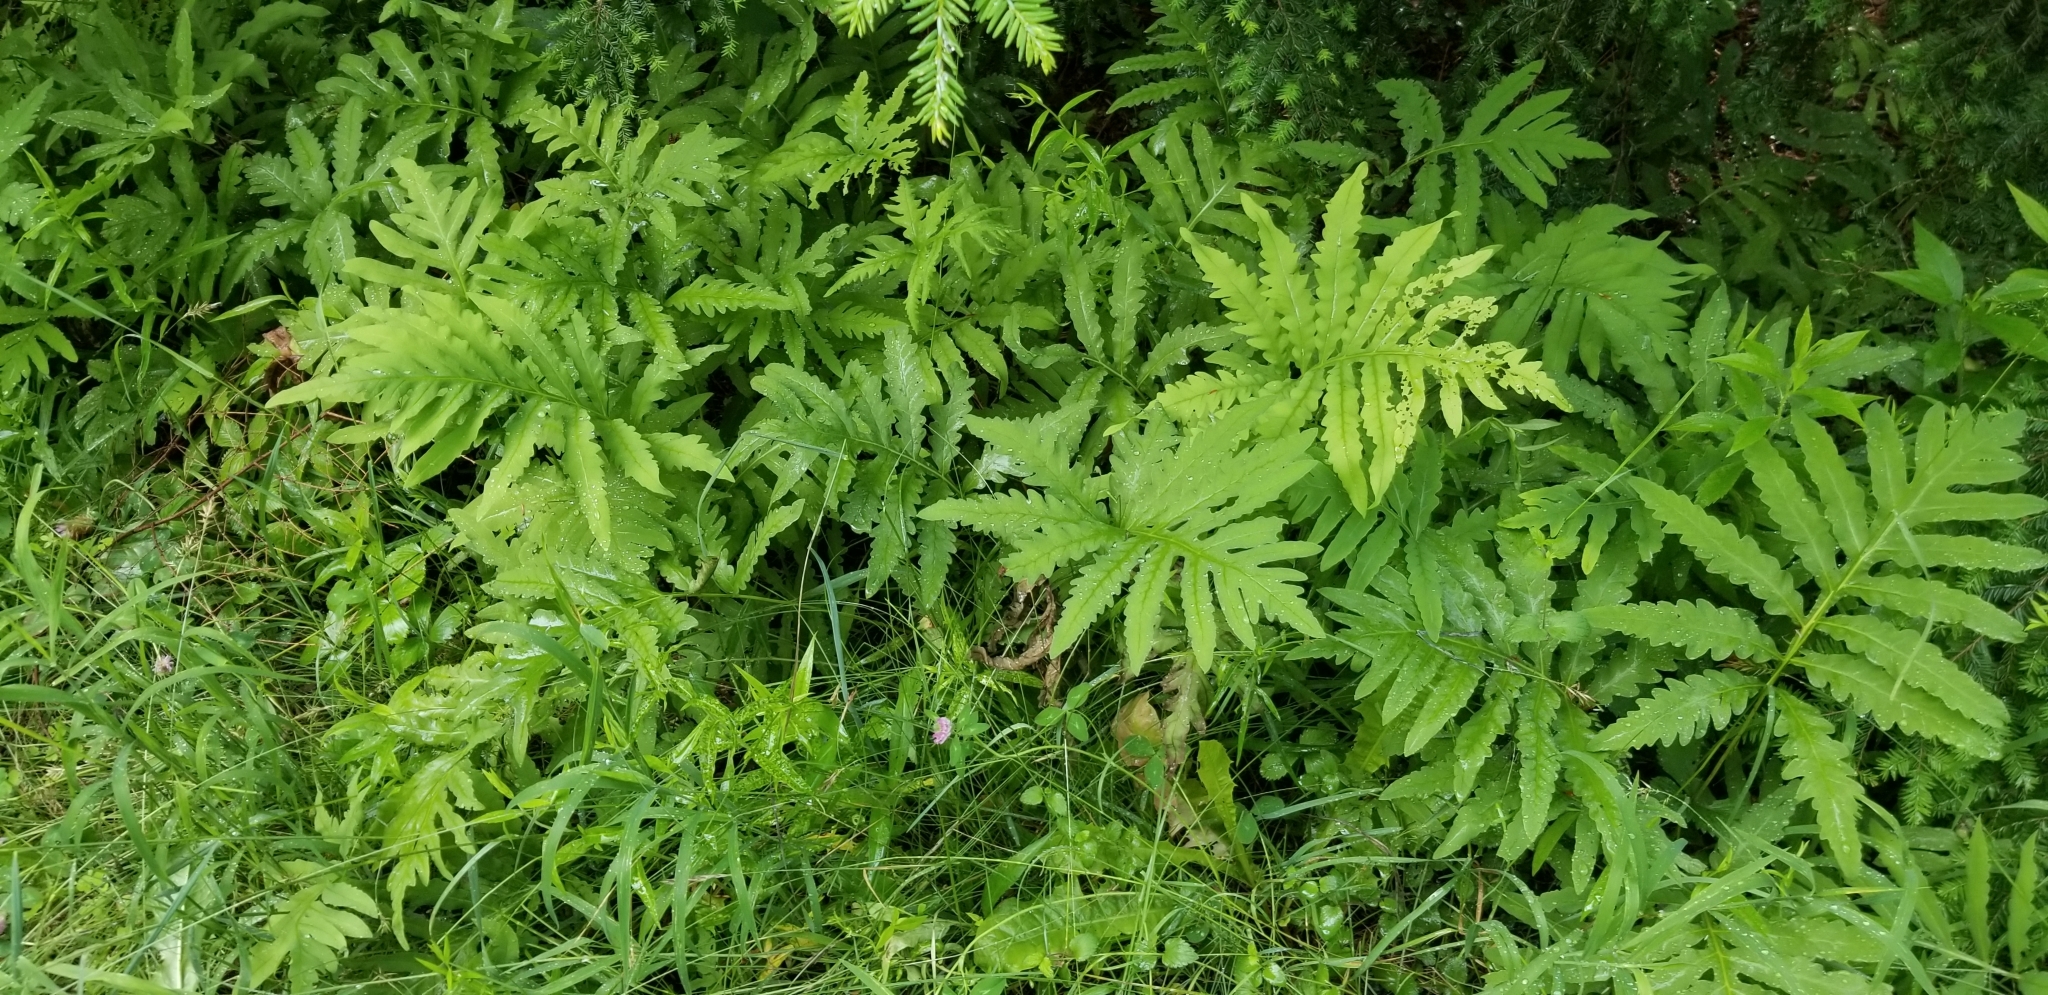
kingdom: Plantae
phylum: Tracheophyta
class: Polypodiopsida
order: Polypodiales
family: Onocleaceae
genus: Onoclea
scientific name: Onoclea sensibilis
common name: Sensitive fern
